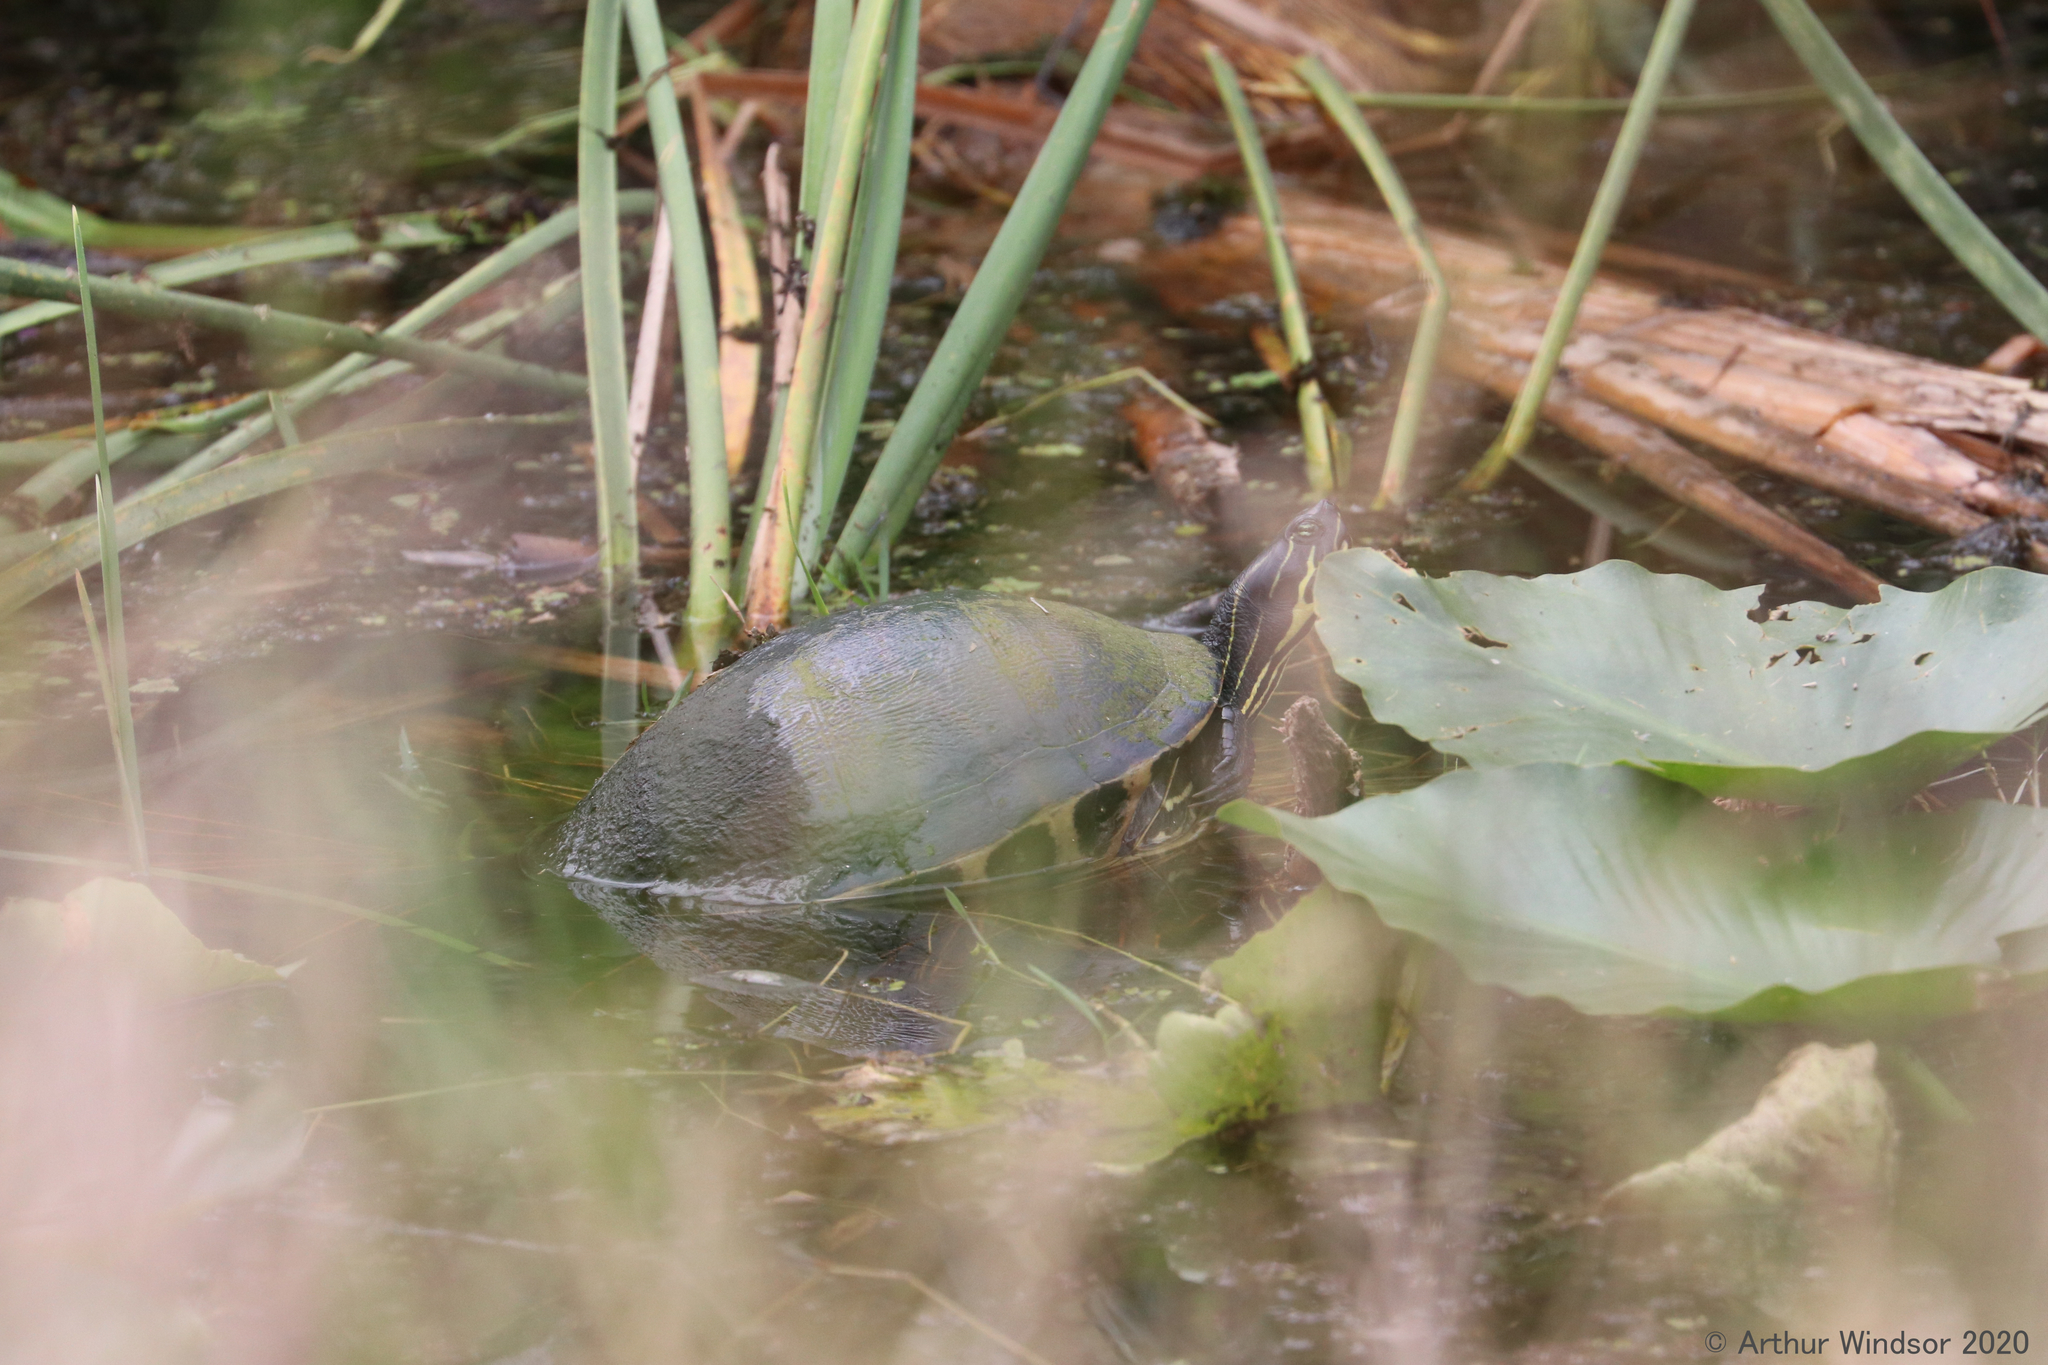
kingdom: Animalia
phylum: Chordata
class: Testudines
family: Emydidae
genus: Pseudemys
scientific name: Pseudemys nelsoni
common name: Florida red-bellied turtle
